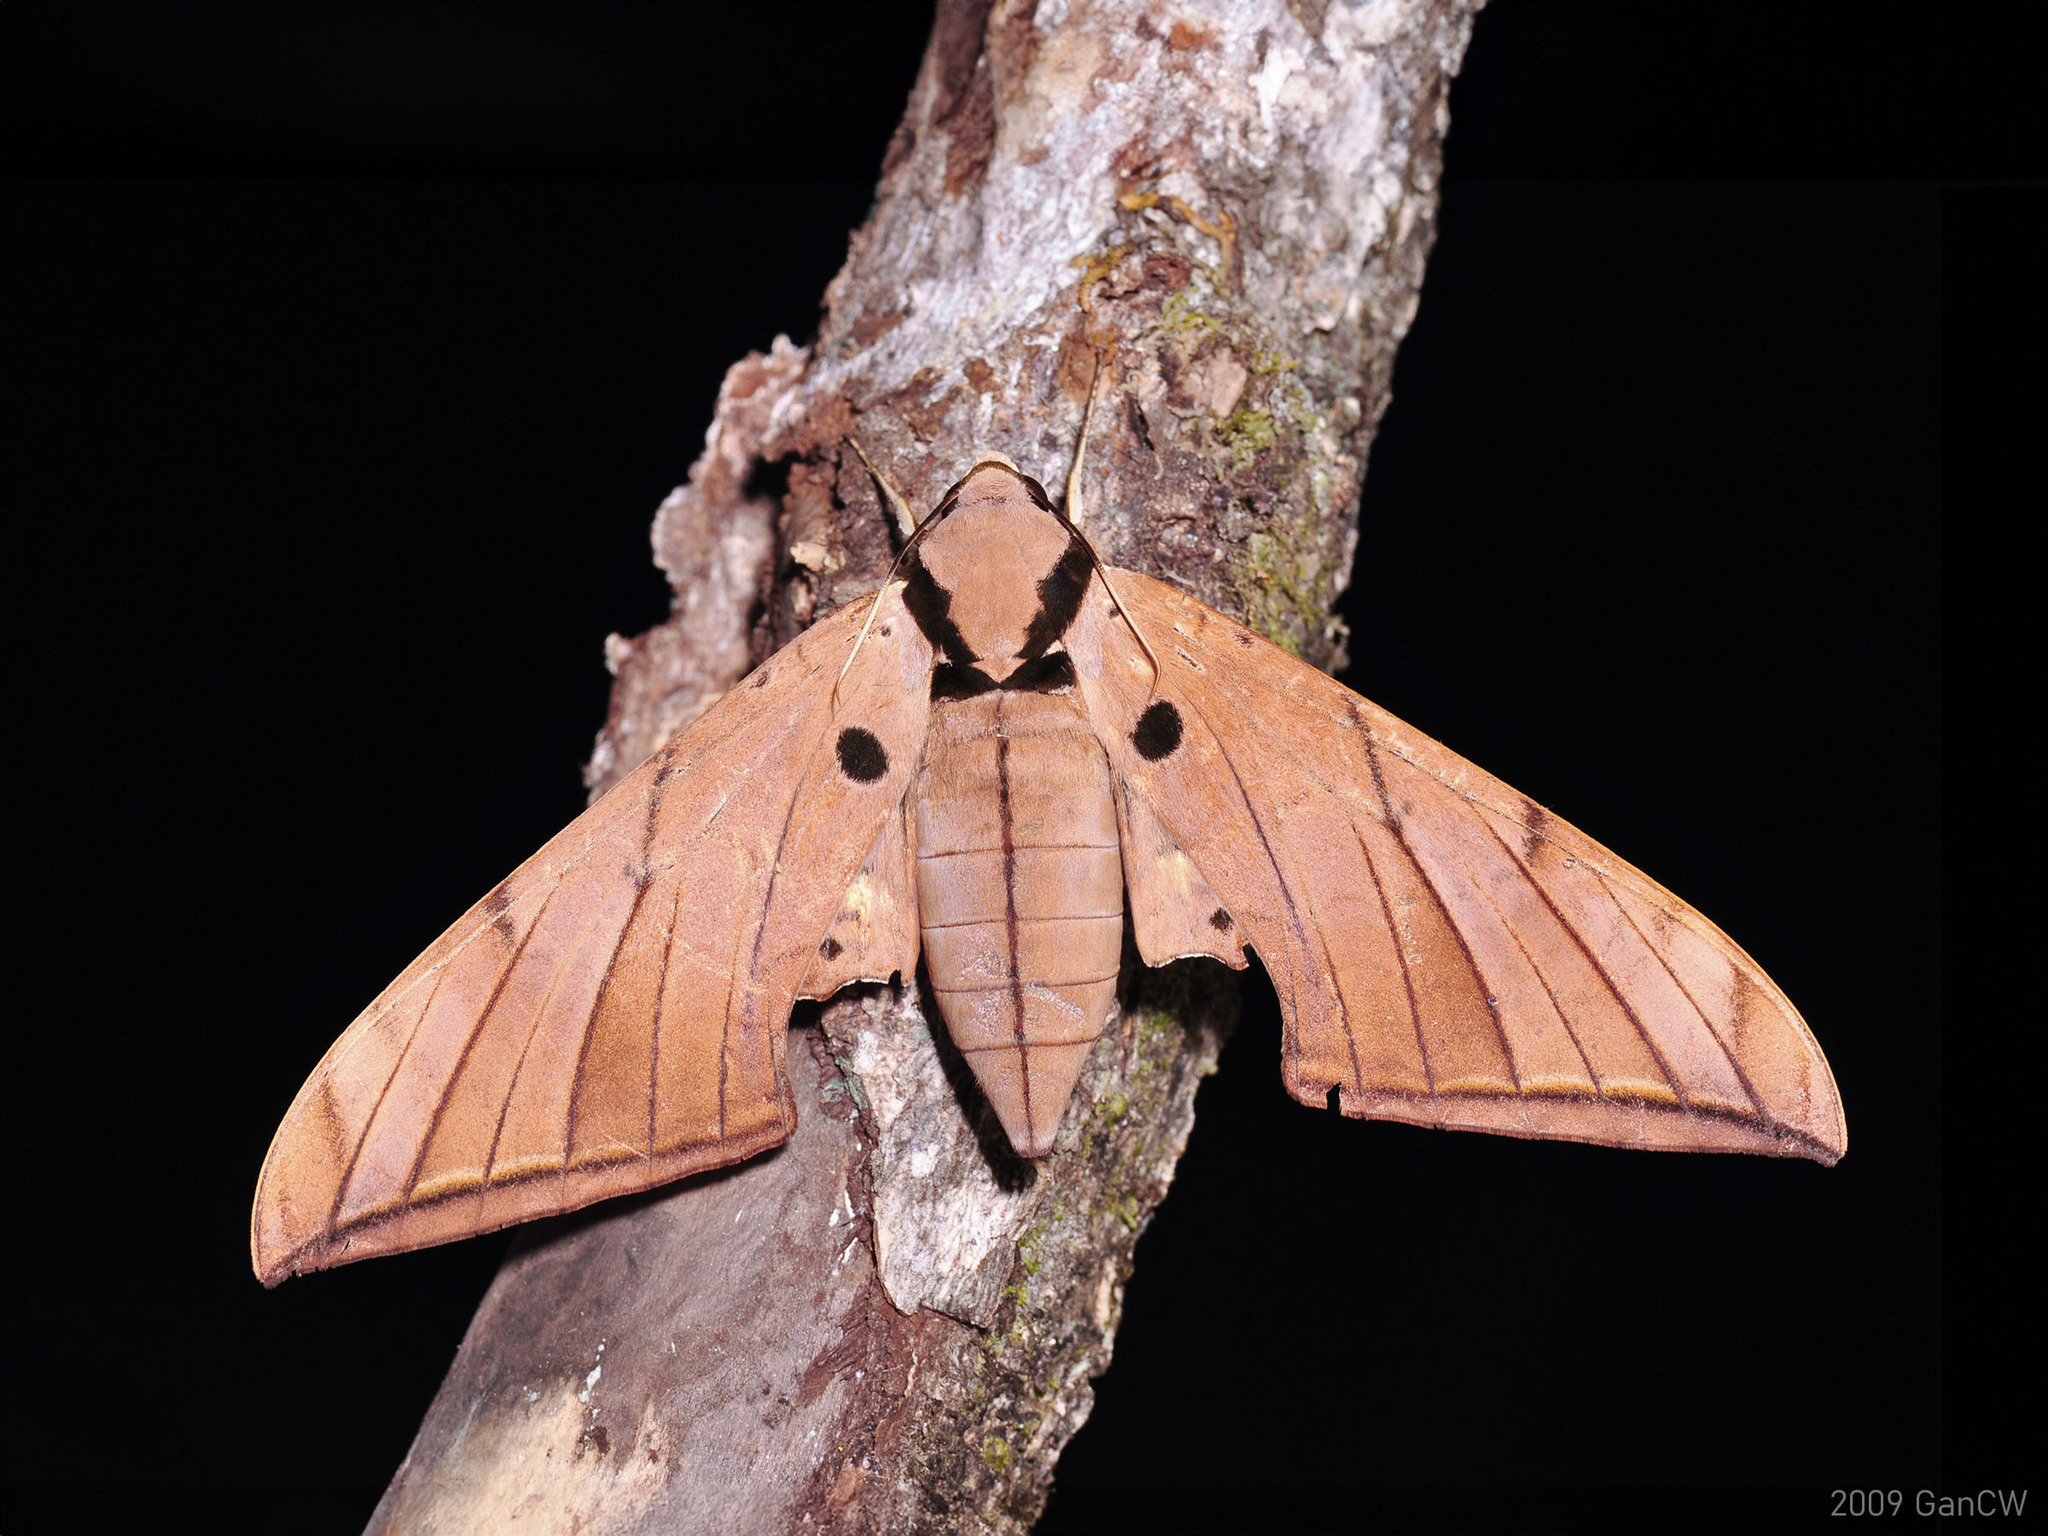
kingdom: Animalia
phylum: Arthropoda
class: Insecta
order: Lepidoptera
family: Sphingidae
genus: Ambulyx
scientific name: Ambulyx pryeri
